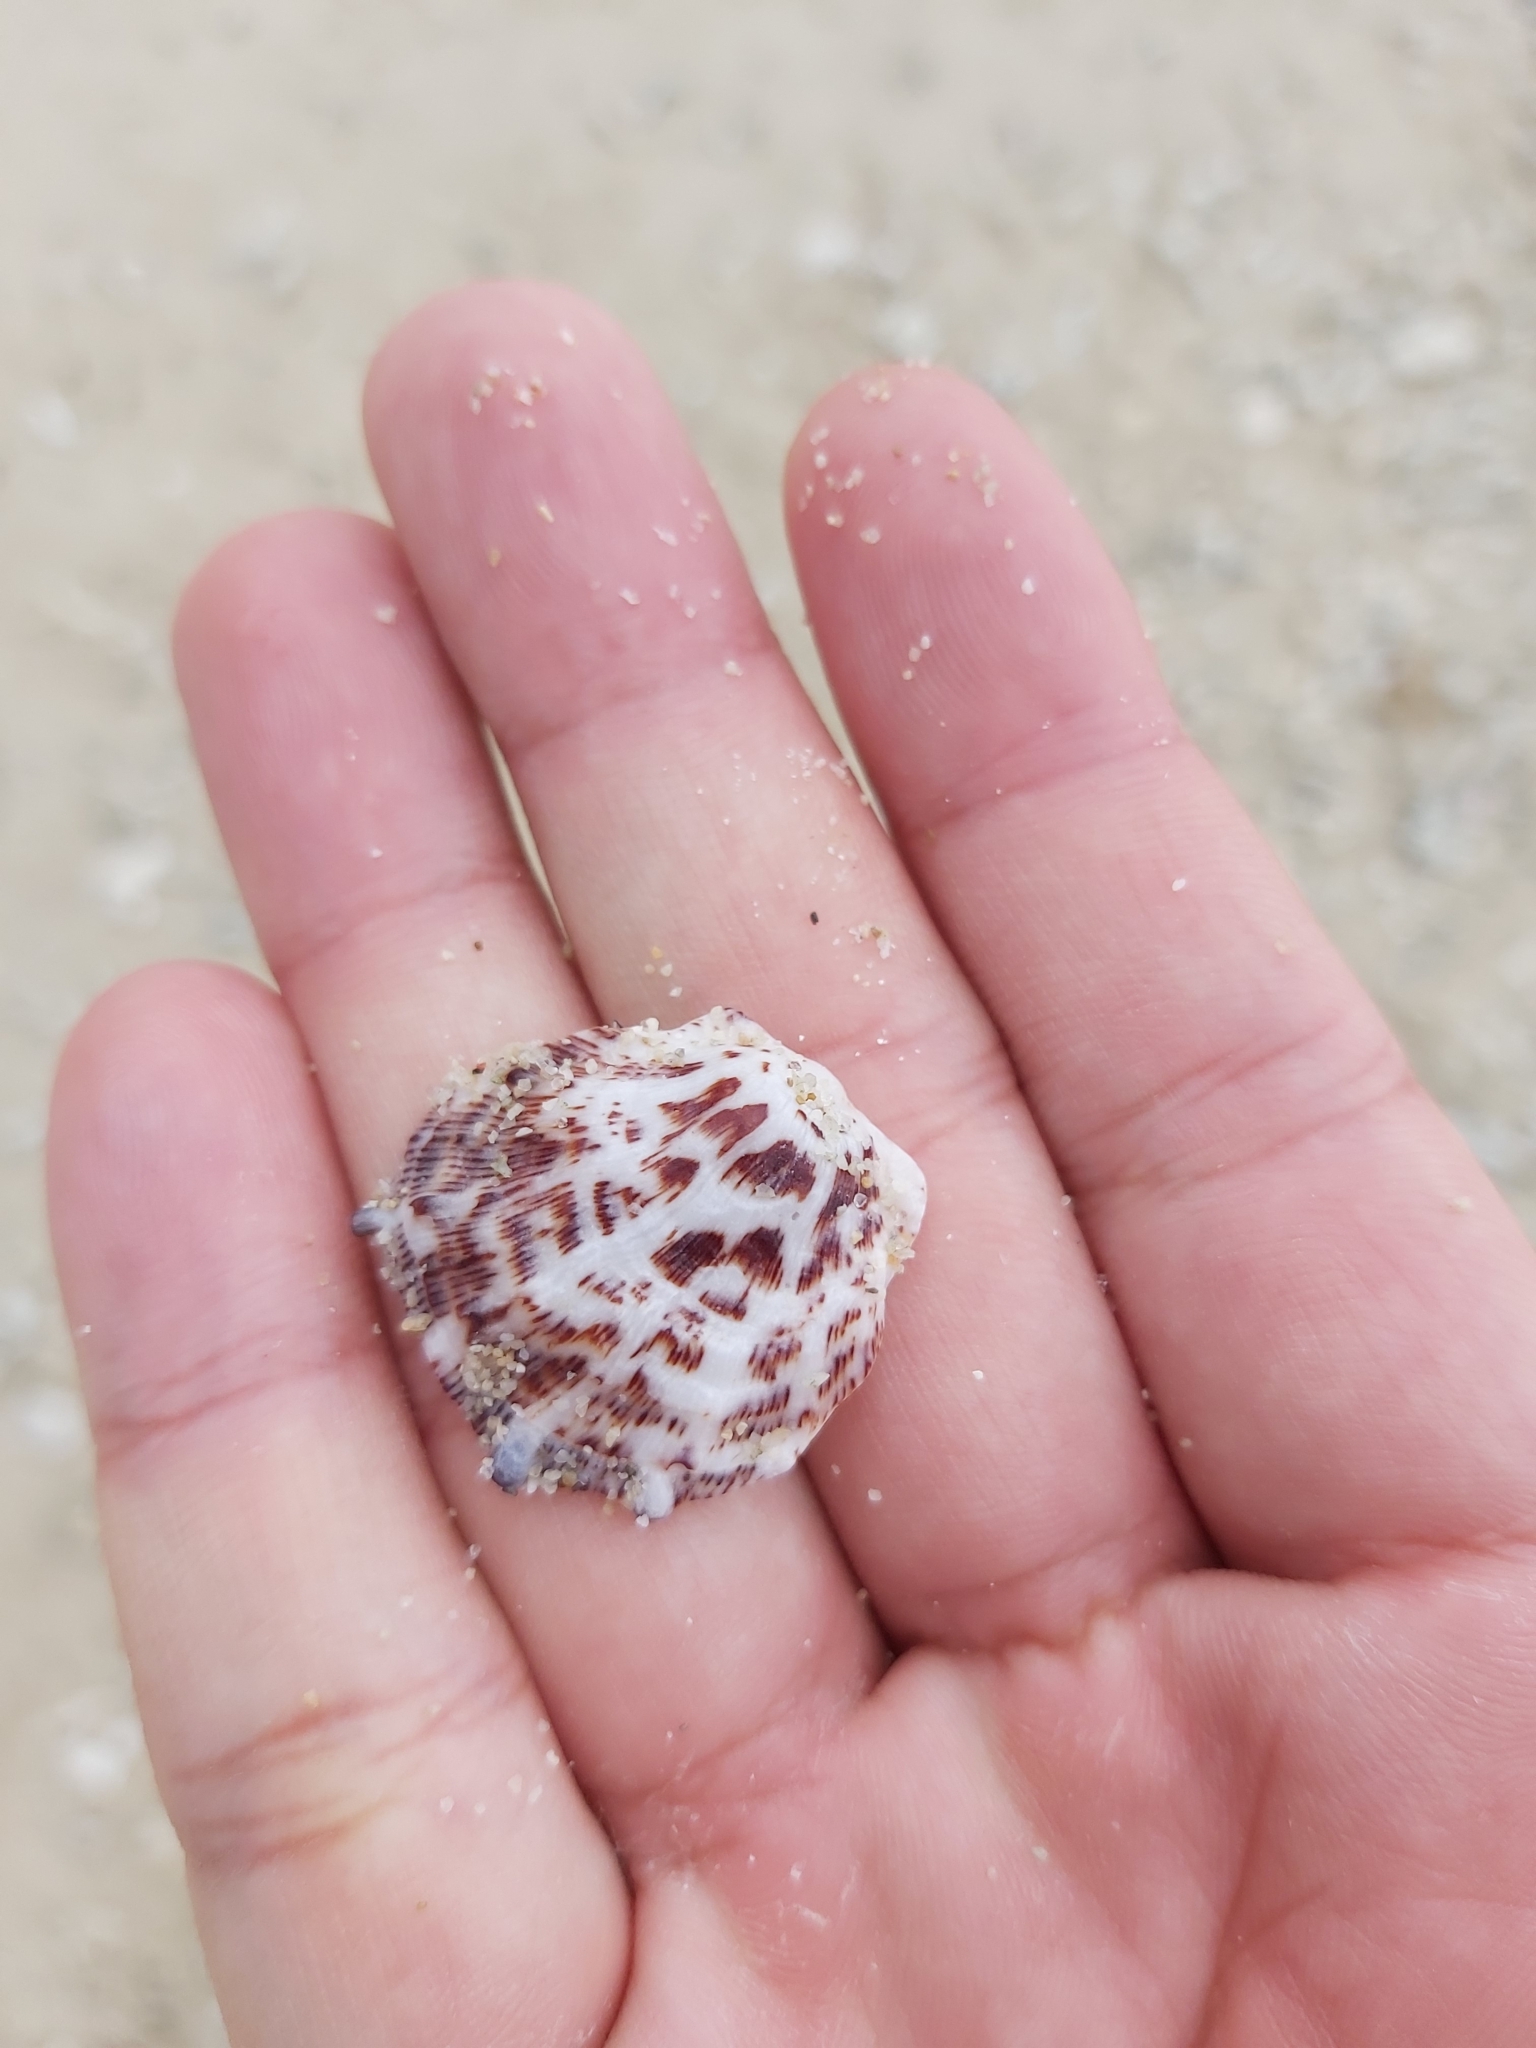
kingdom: Animalia
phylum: Mollusca
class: Bivalvia
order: Pectinida
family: Spondylidae
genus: Spondylus
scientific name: Spondylus nicobaricus
